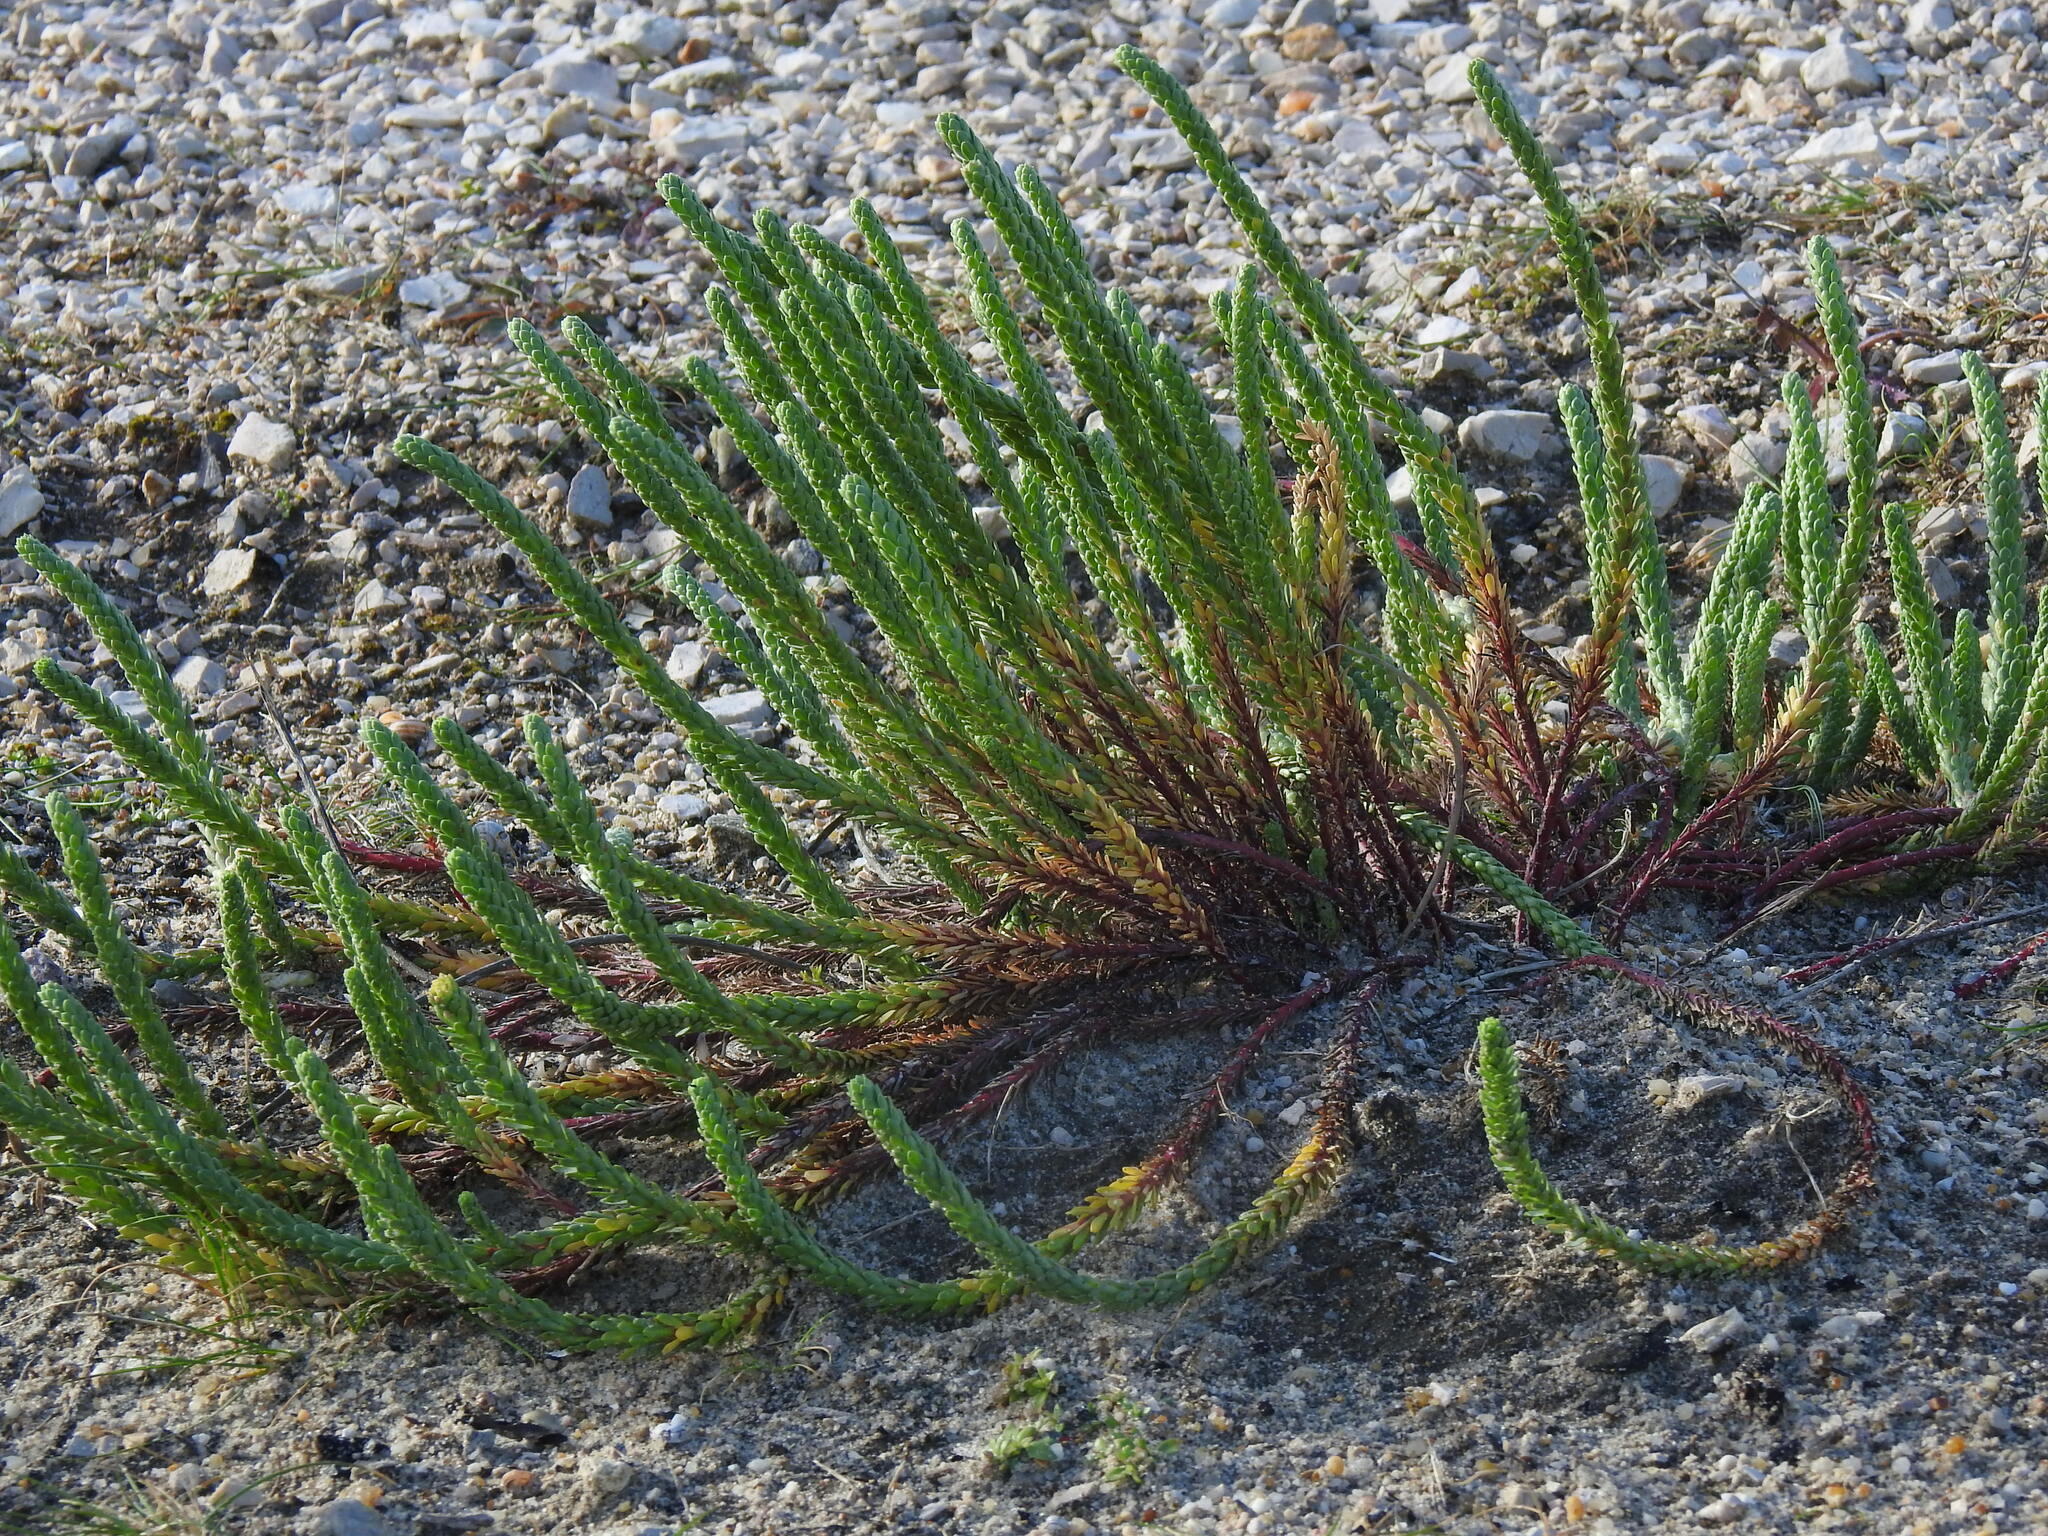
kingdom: Plantae
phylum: Tracheophyta
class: Magnoliopsida
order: Malpighiales
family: Euphorbiaceae
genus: Euphorbia
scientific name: Euphorbia paralias
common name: Sea spurge
